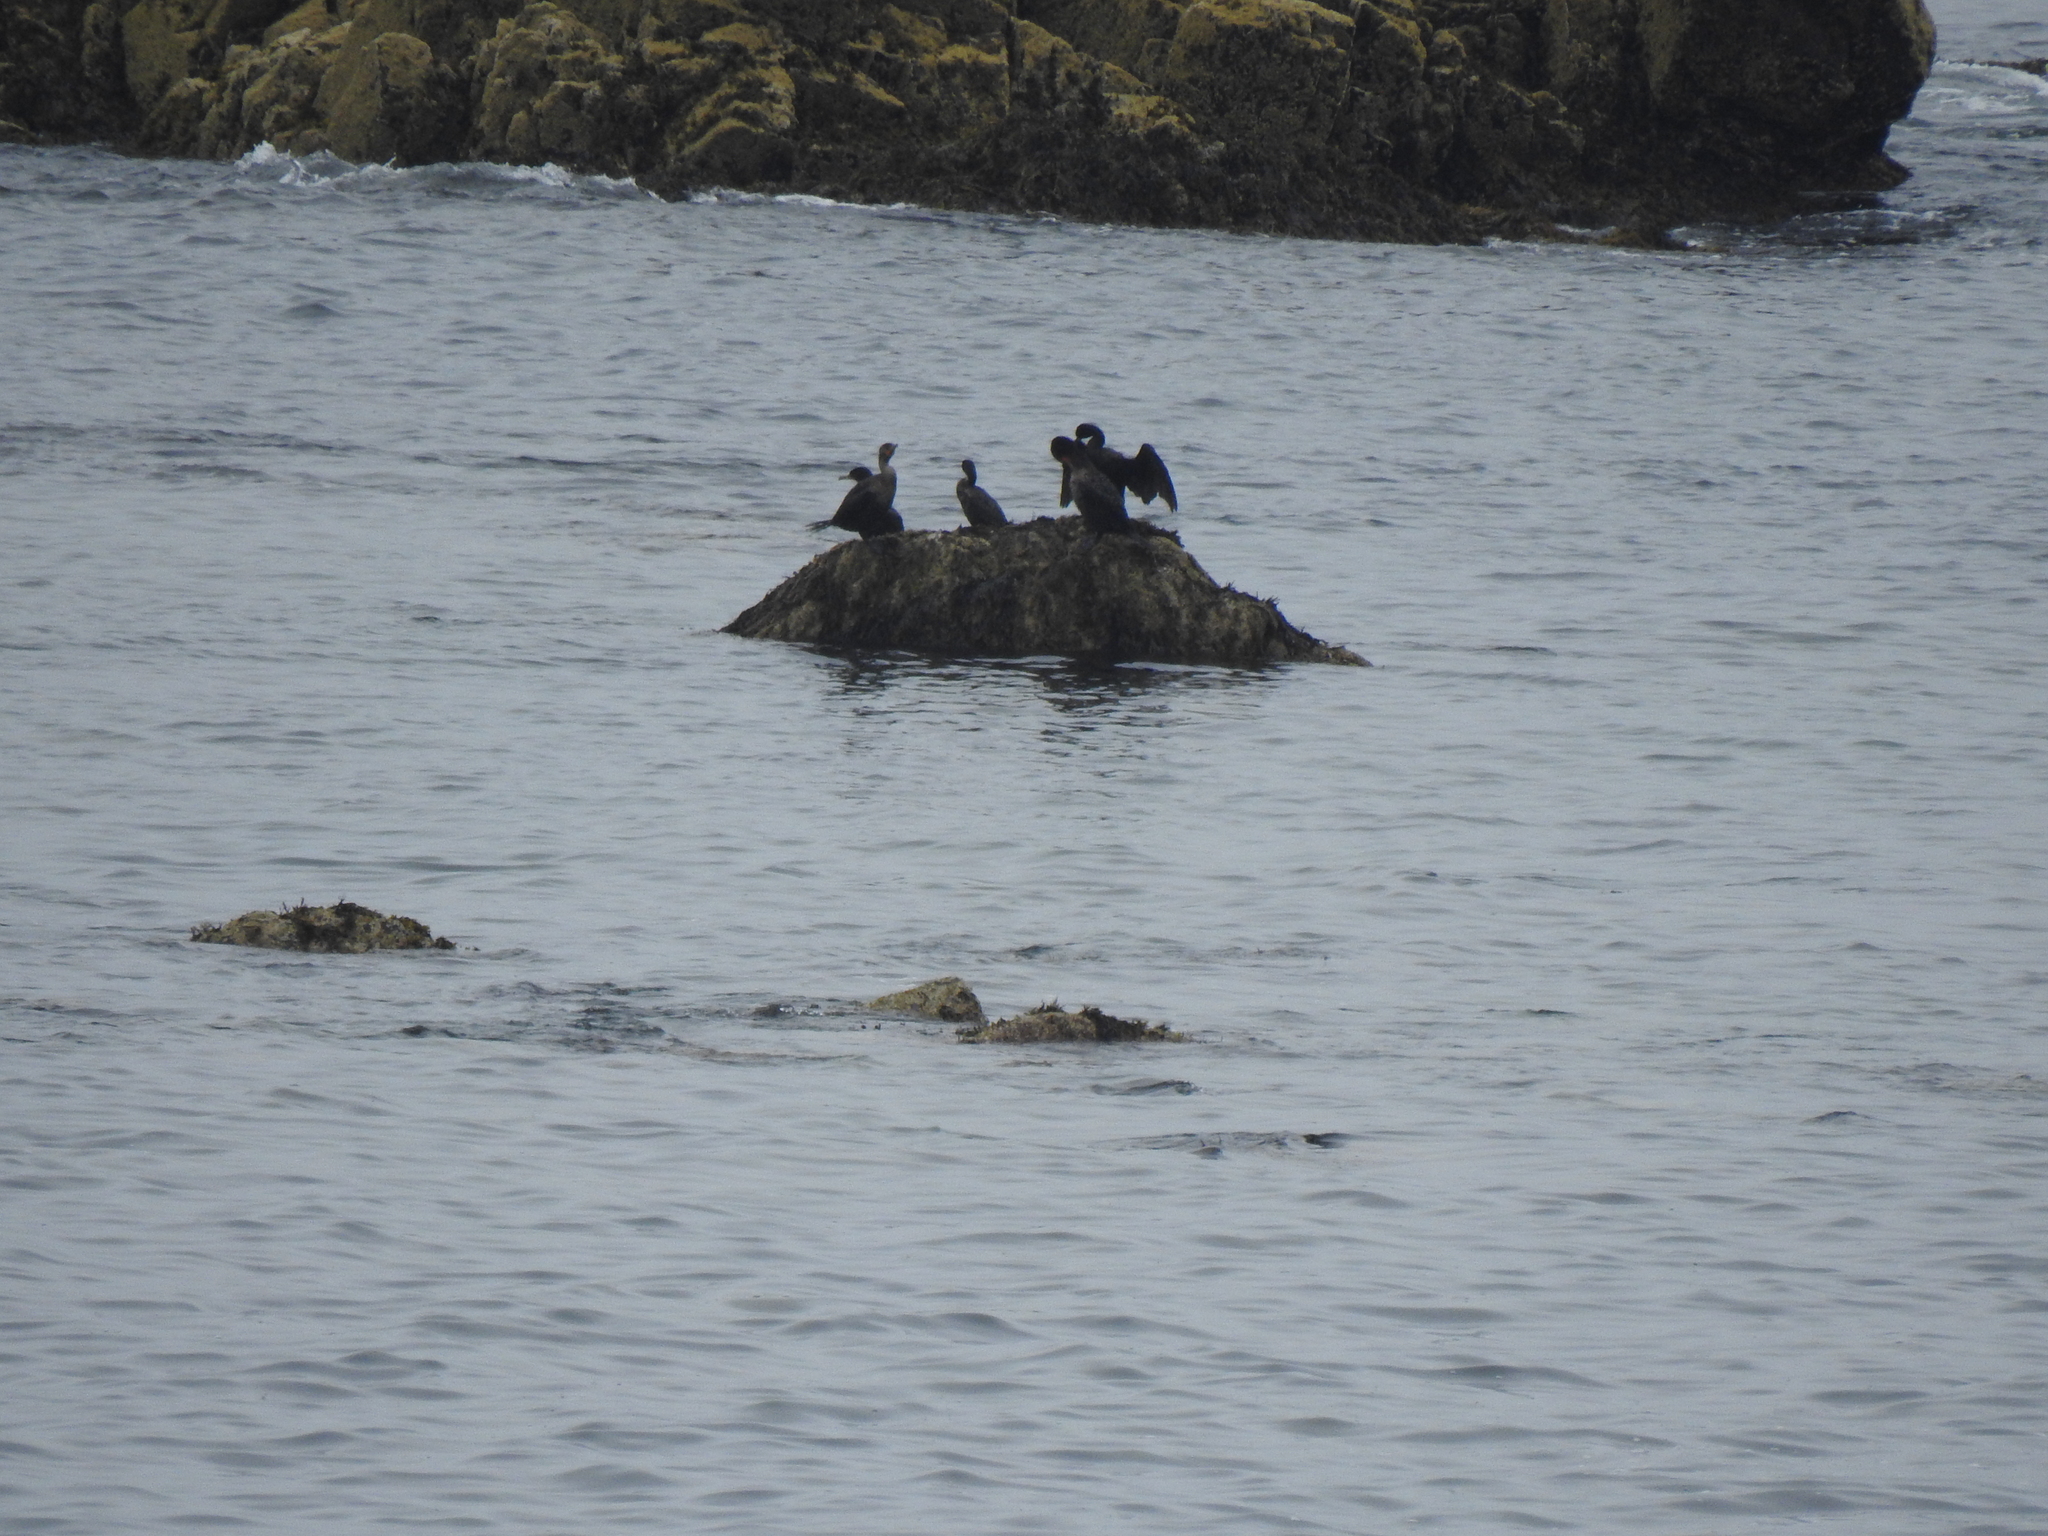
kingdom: Animalia
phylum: Chordata
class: Aves
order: Suliformes
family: Phalacrocoracidae
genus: Phalacrocorax
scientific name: Phalacrocorax auritus
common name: Double-crested cormorant
